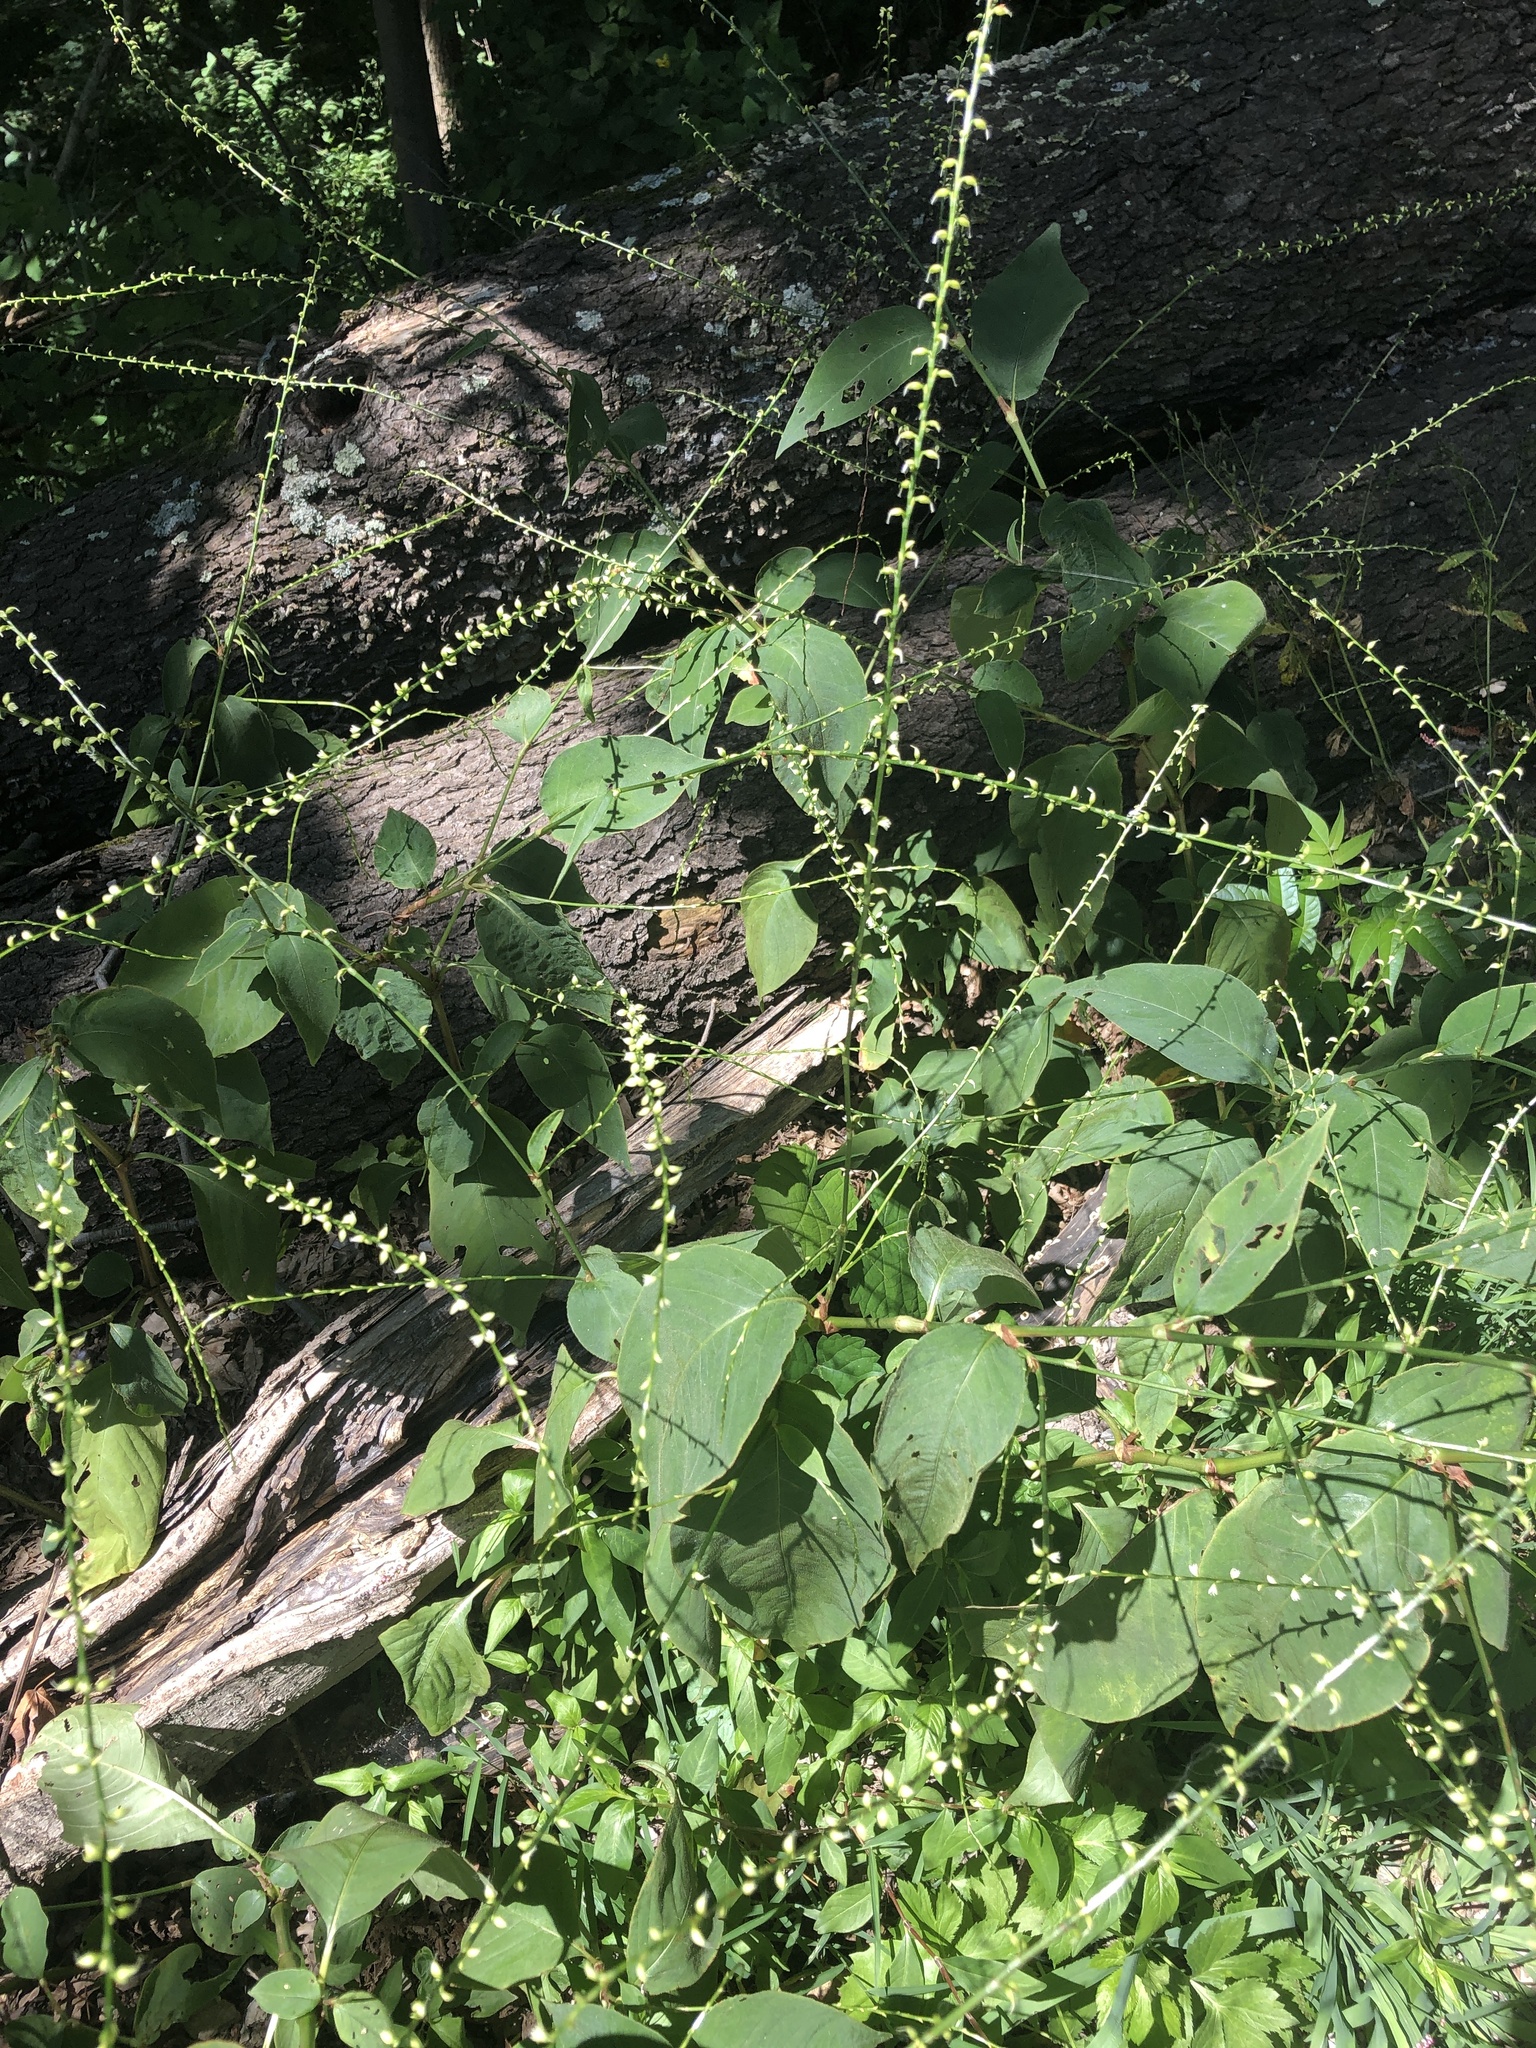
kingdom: Plantae
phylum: Tracheophyta
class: Magnoliopsida
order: Caryophyllales
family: Polygonaceae
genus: Persicaria
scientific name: Persicaria virginiana
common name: Jumpseed
